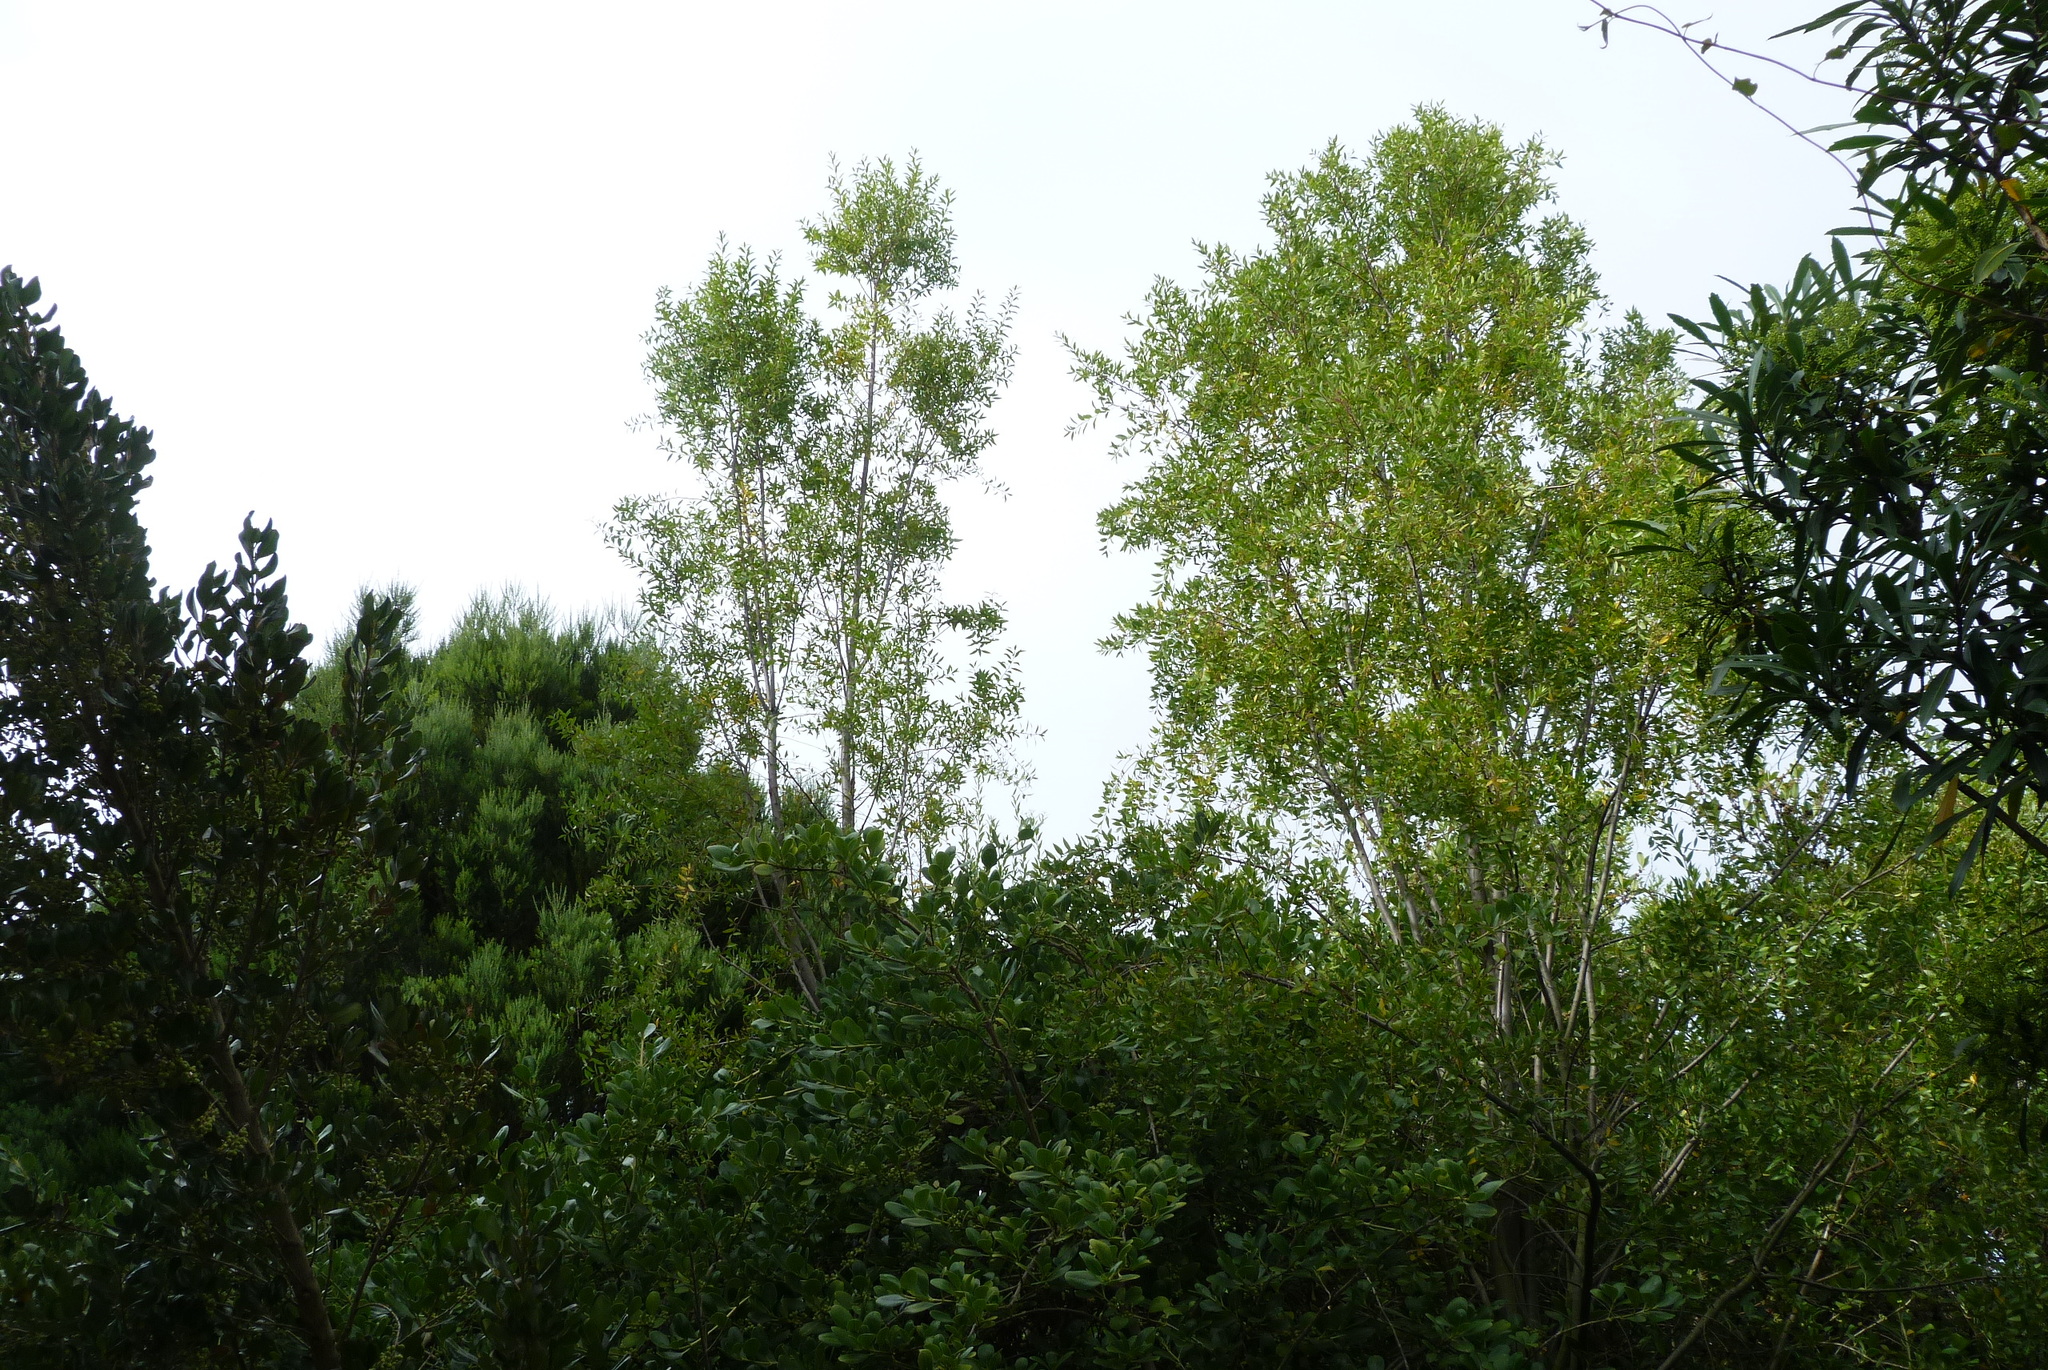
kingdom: Plantae
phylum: Tracheophyta
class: Magnoliopsida
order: Celastrales
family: Celastraceae
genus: Maytenus
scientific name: Maytenus boaria
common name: Mayten
